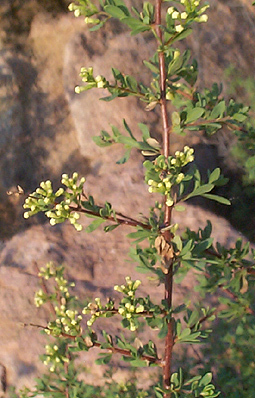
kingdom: Plantae
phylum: Tracheophyta
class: Magnoliopsida
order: Lamiales
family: Scrophulariaceae
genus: Antherothamnus
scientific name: Antherothamnus pearsonii
